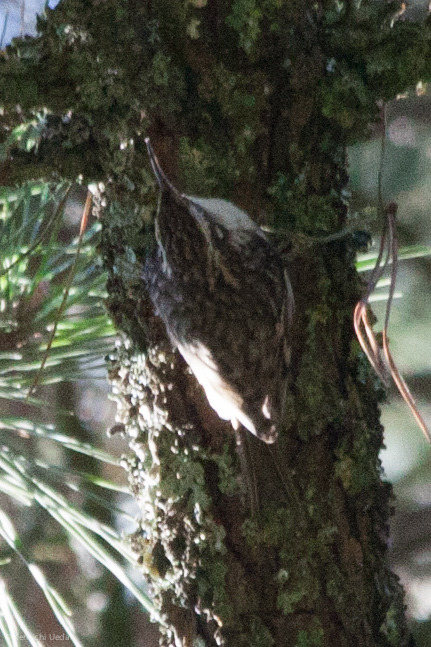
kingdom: Animalia
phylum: Chordata
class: Aves
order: Passeriformes
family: Certhiidae
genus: Certhia
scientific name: Certhia americana
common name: Brown creeper
